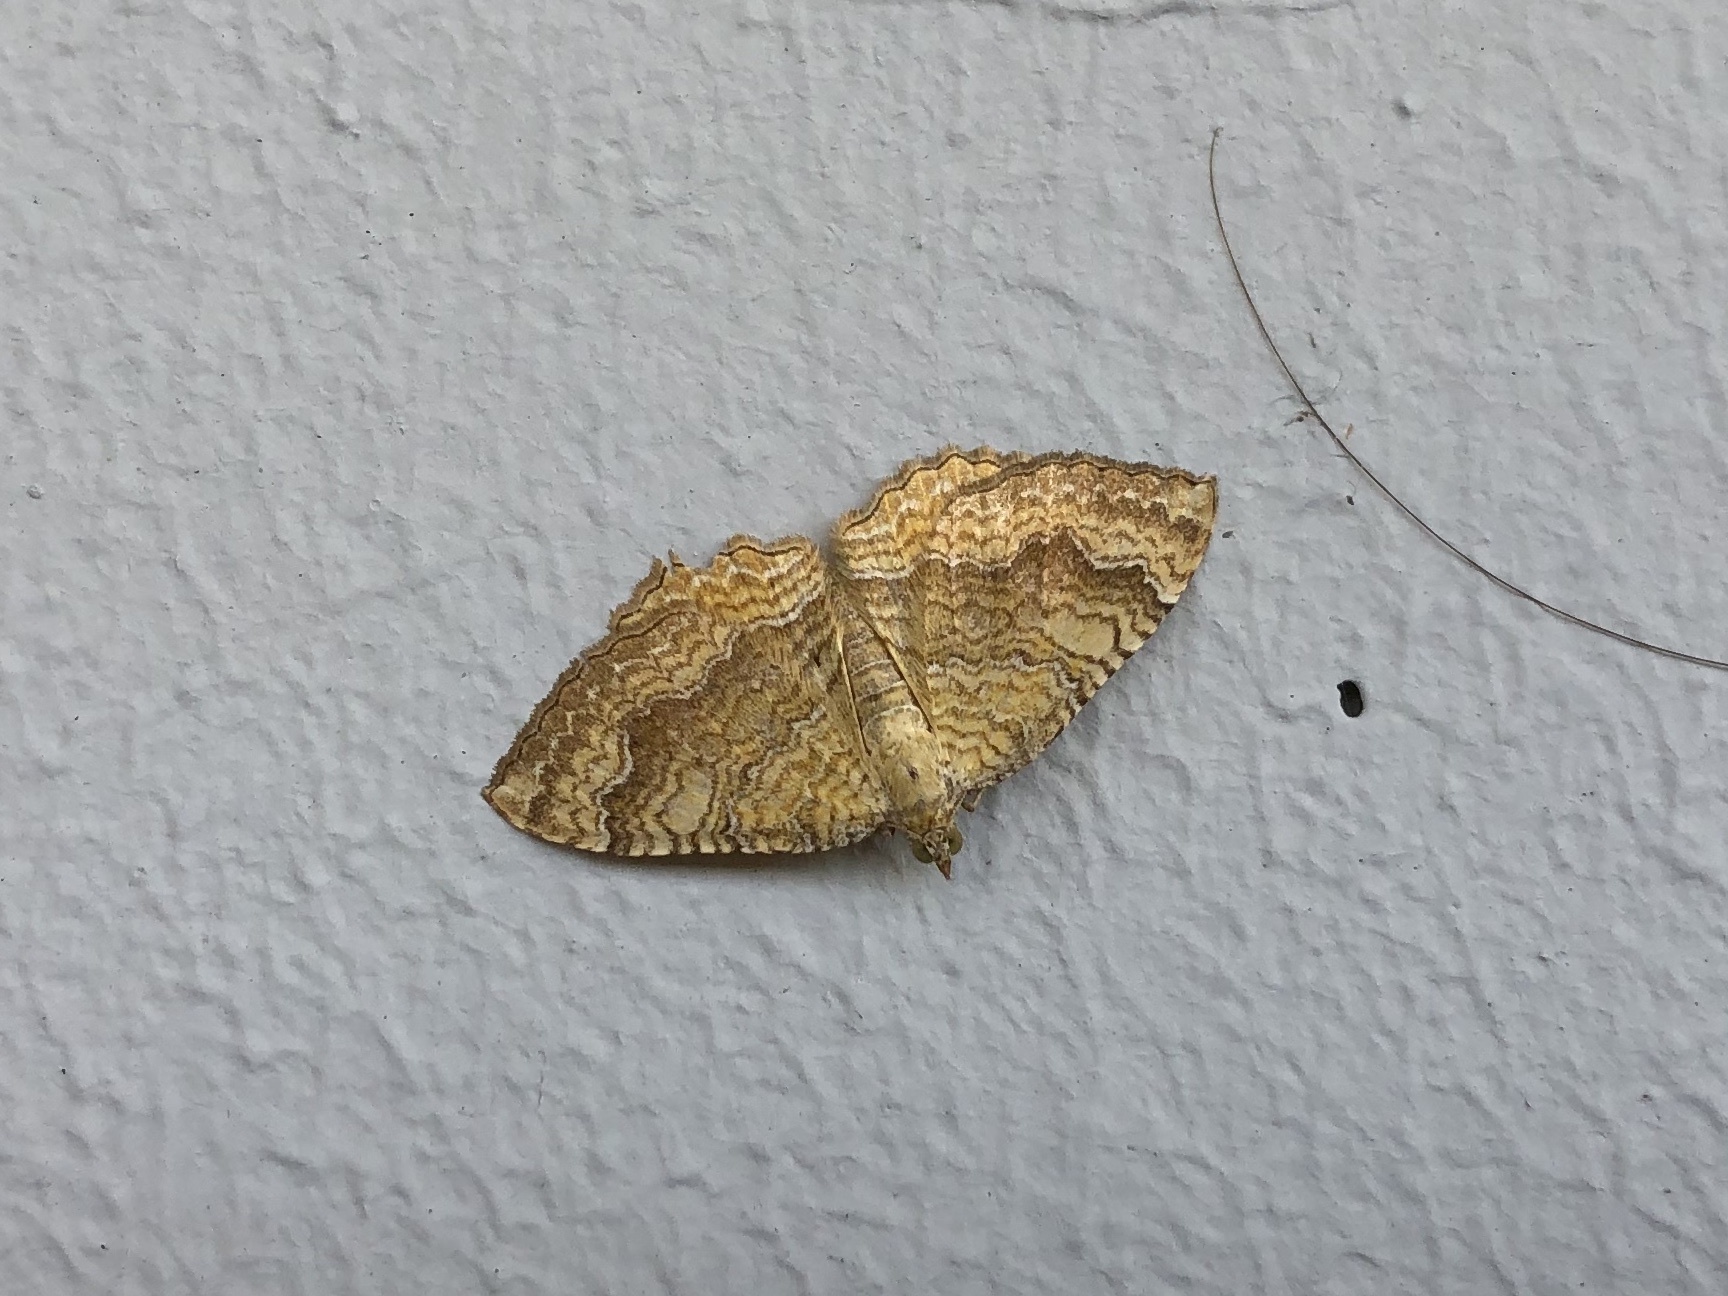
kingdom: Animalia
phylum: Arthropoda
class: Insecta
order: Lepidoptera
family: Geometridae
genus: Camptogramma
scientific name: Camptogramma bilineata
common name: Yellow shell
